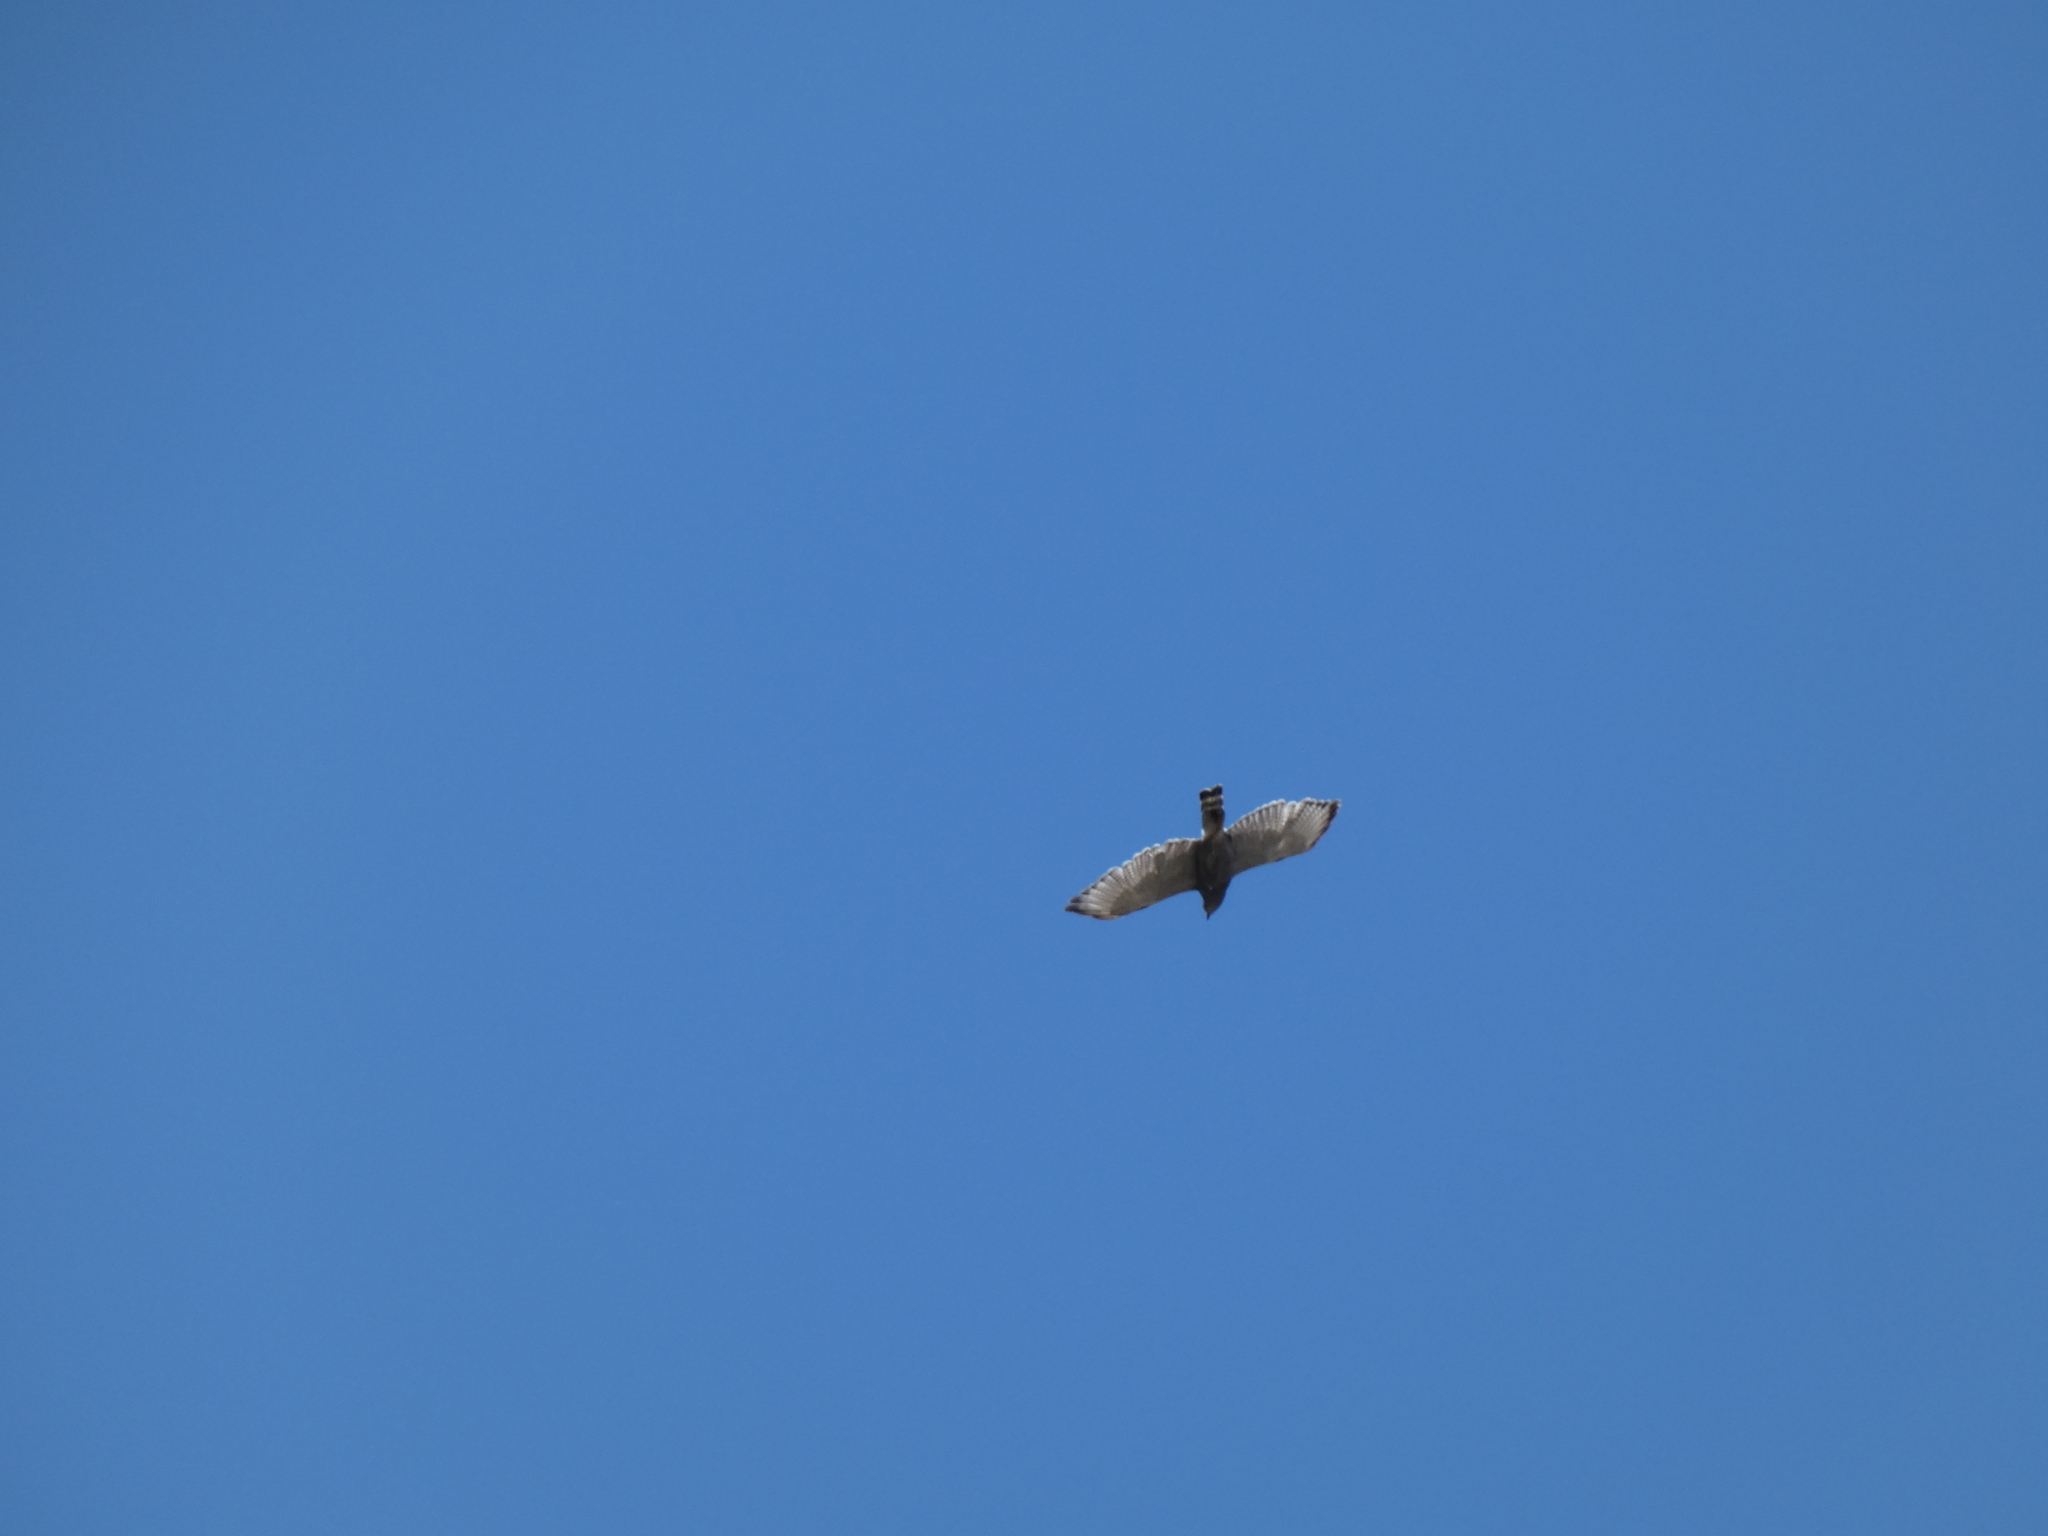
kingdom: Animalia
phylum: Chordata
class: Aves
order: Accipitriformes
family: Accipitridae
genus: Buteo
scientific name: Buteo nitidus
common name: Grey-lined hawk
